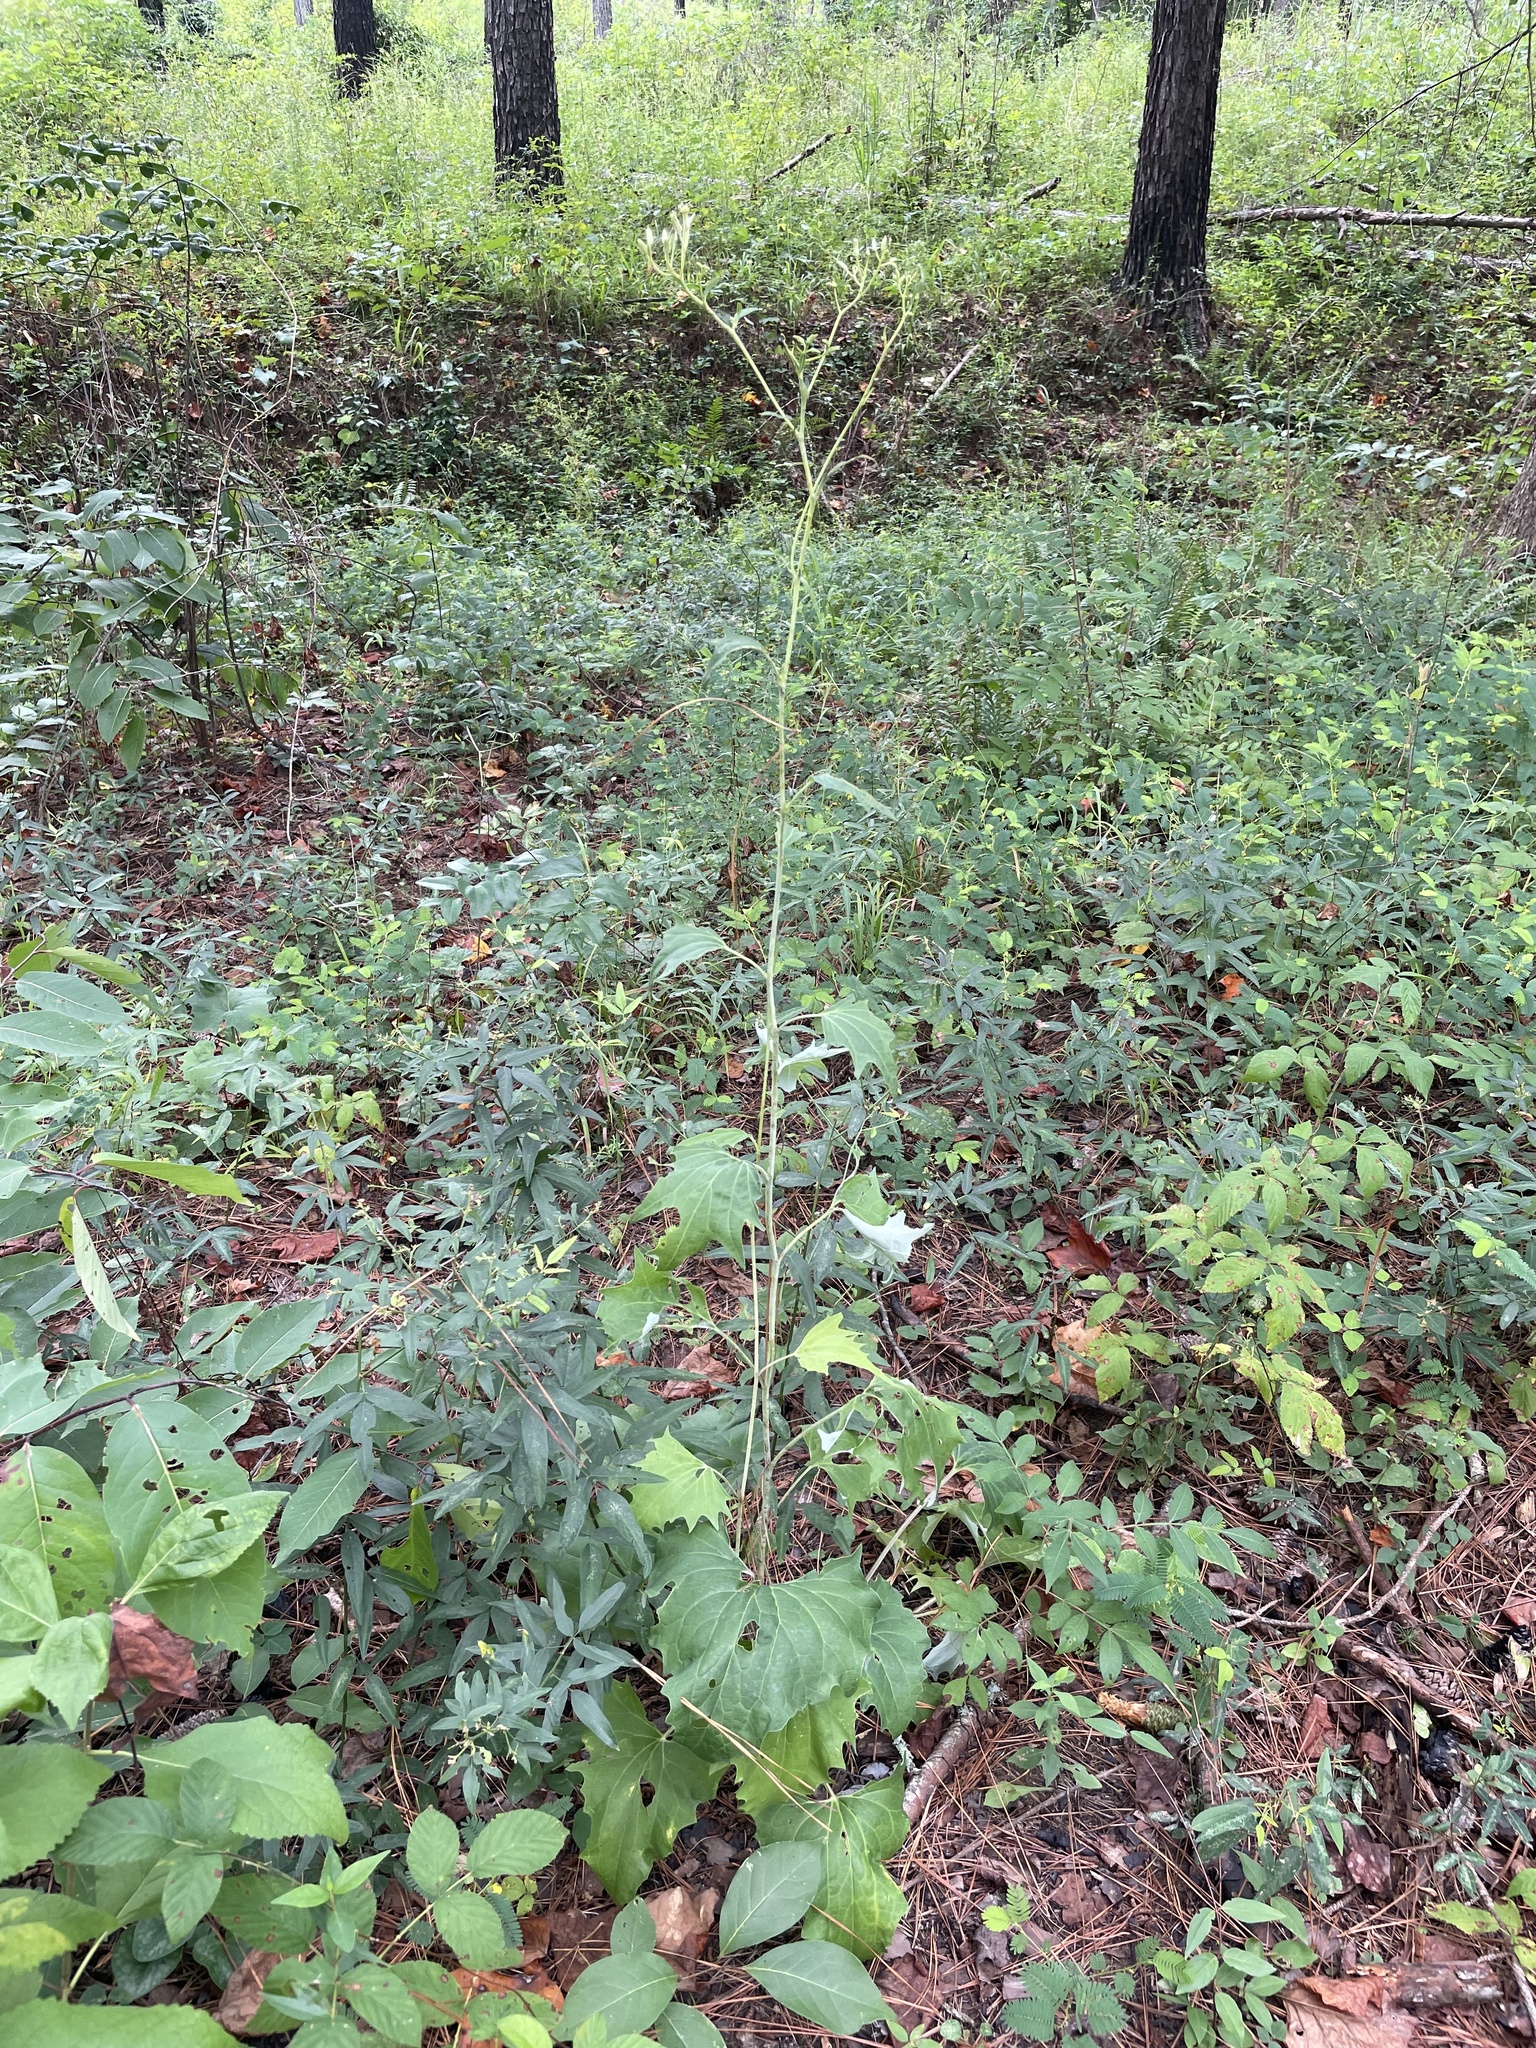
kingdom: Plantae
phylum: Tracheophyta
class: Magnoliopsida
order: Asterales
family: Asteraceae
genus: Arnoglossum
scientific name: Arnoglossum atriplicifolium
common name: Pale indian-plantain
